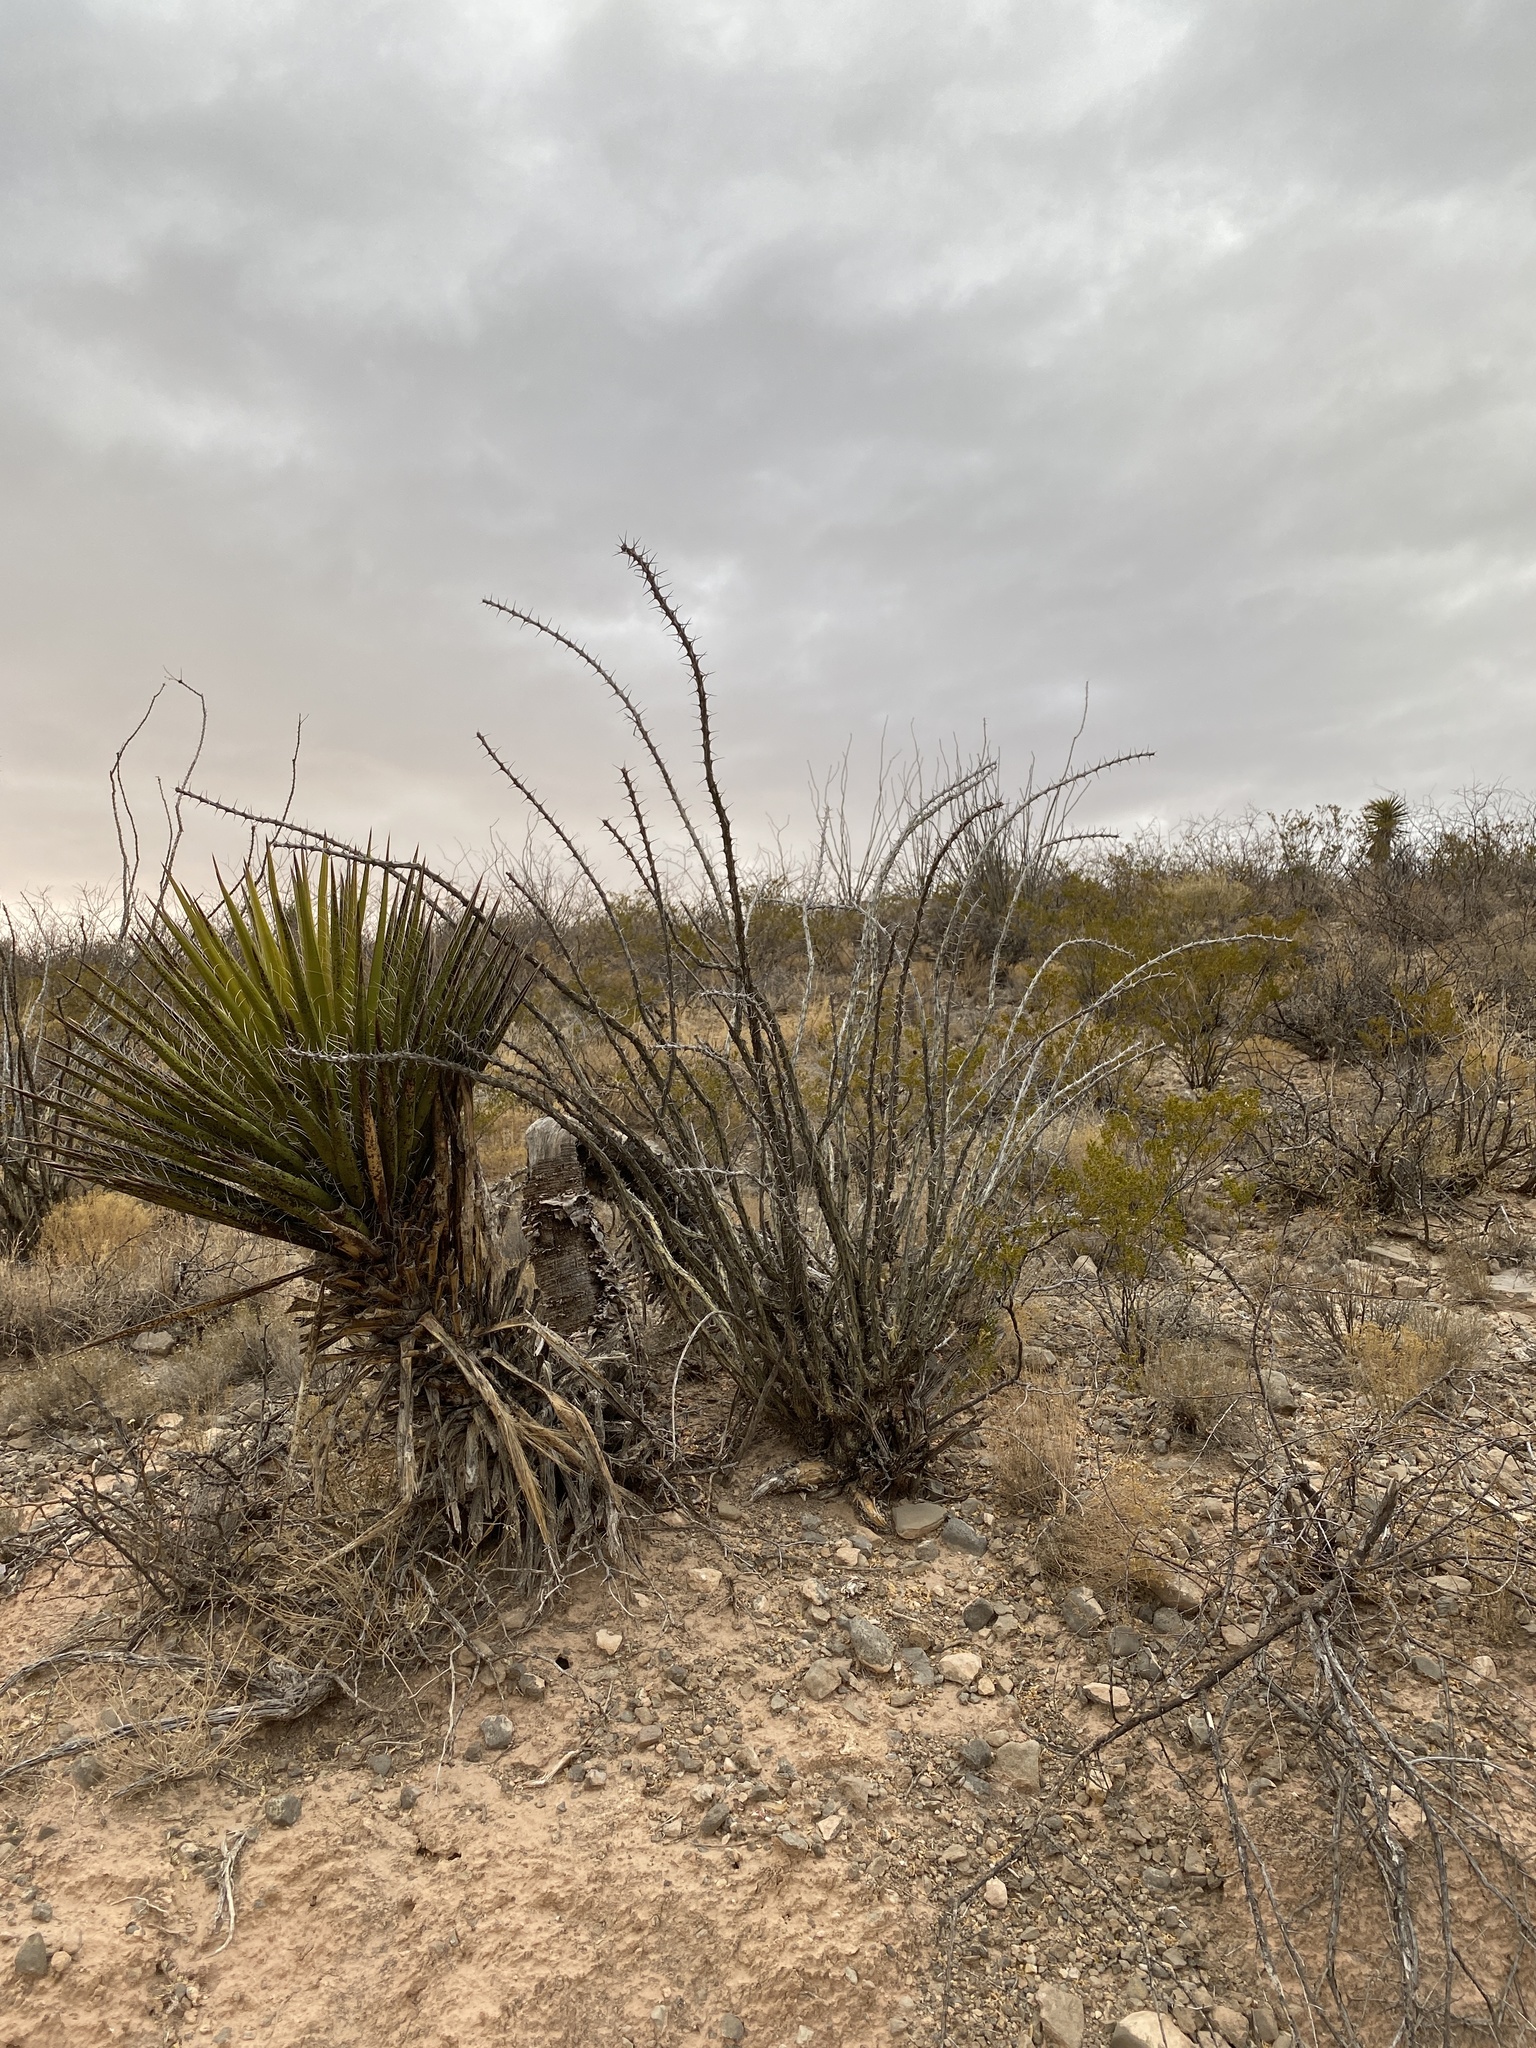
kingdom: Plantae
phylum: Tracheophyta
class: Magnoliopsida
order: Ericales
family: Fouquieriaceae
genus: Fouquieria
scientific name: Fouquieria splendens
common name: Vine-cactus
